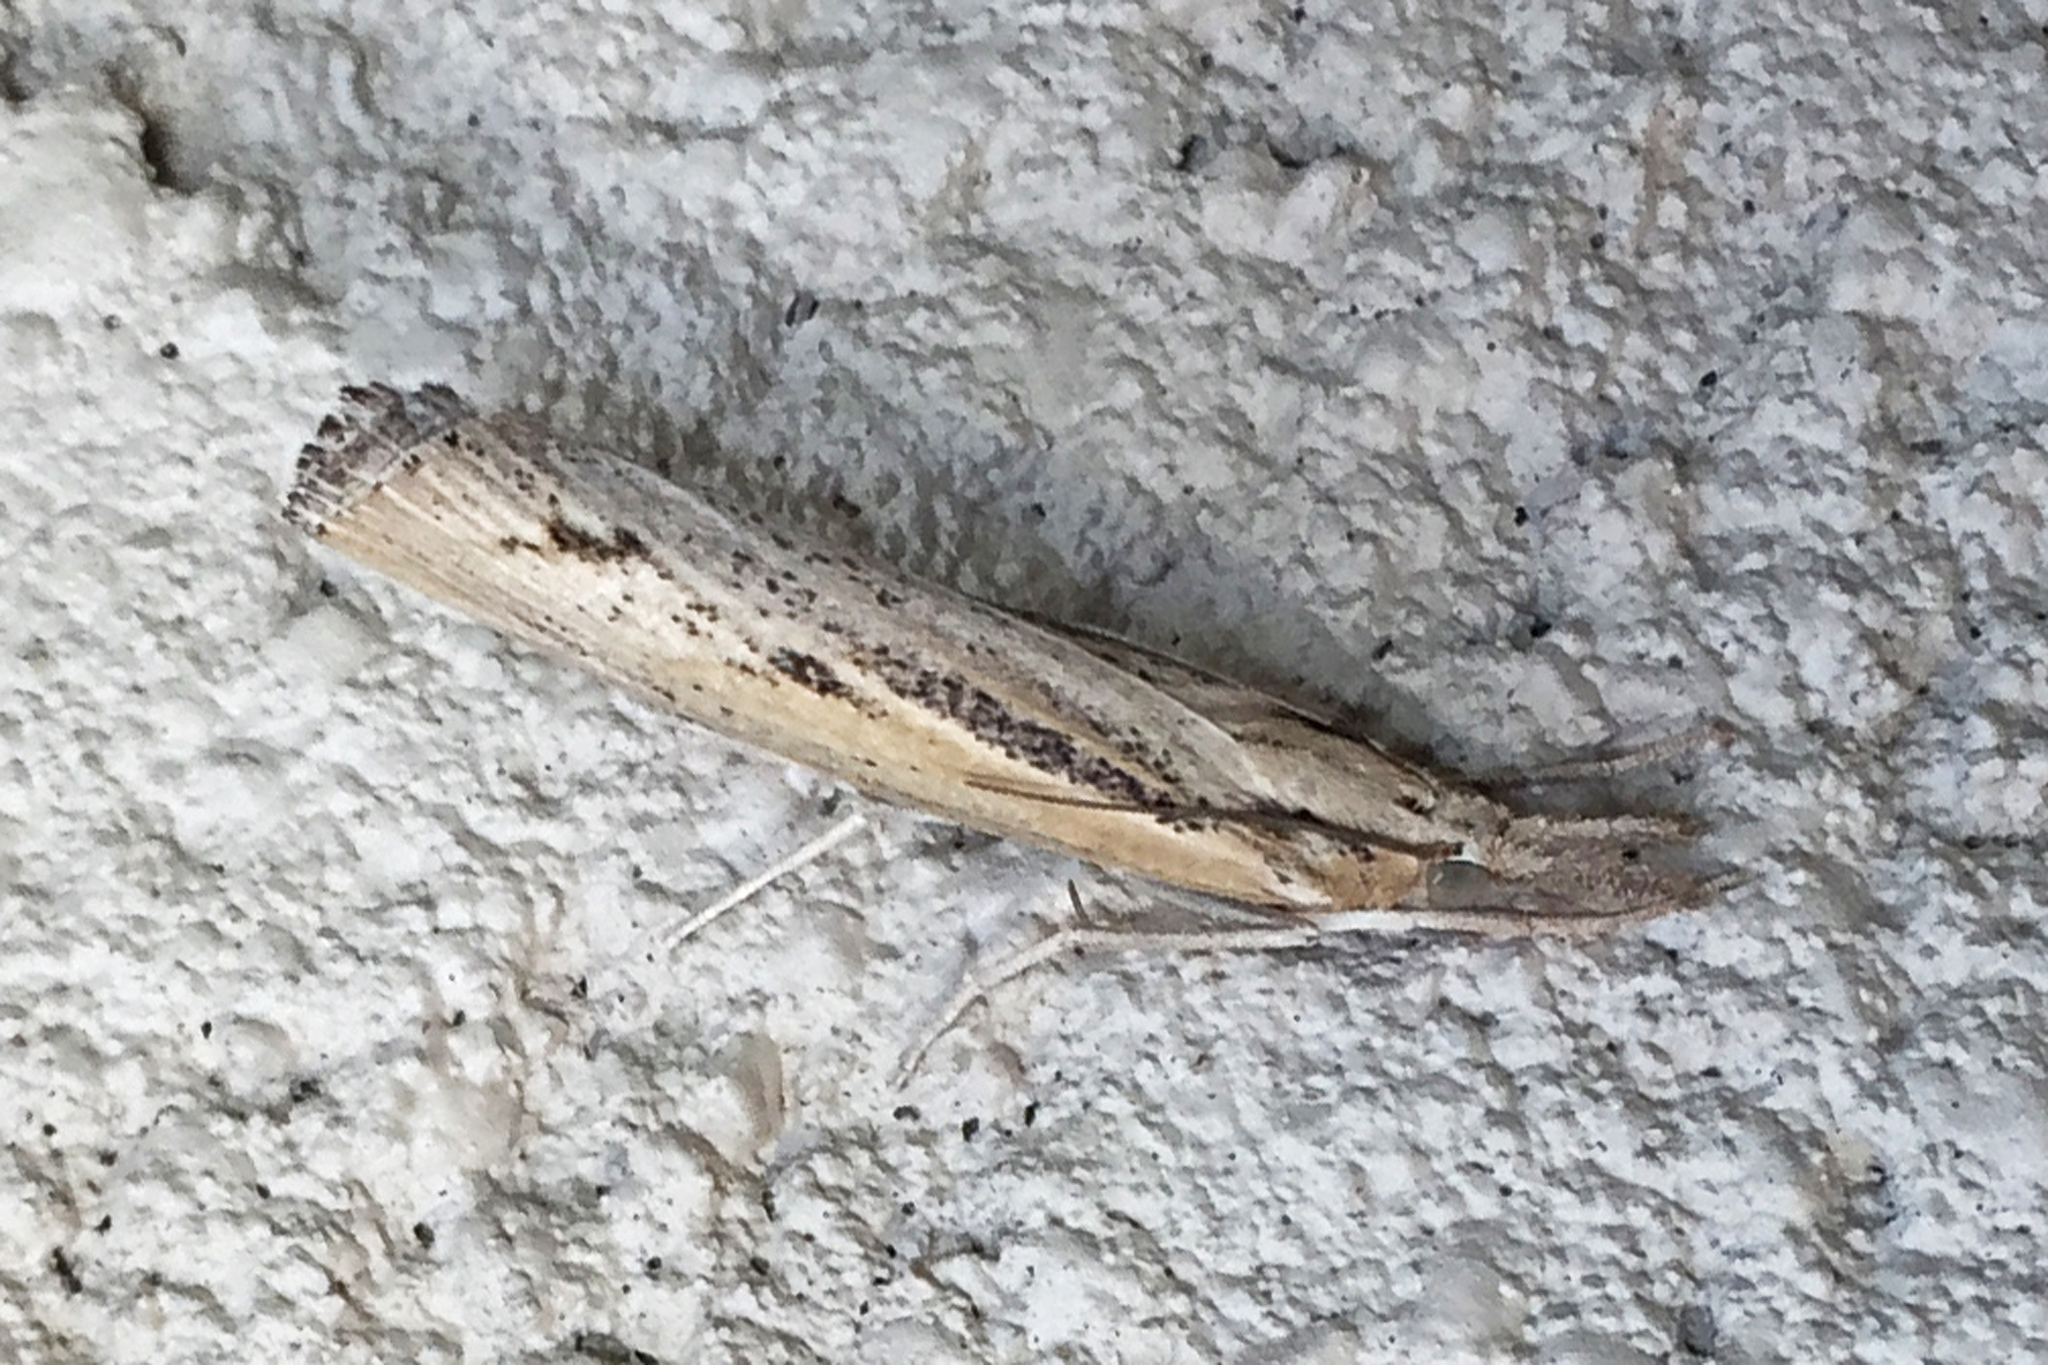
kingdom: Animalia
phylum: Arthropoda
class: Insecta
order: Lepidoptera
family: Crambidae
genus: Pediasia
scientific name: Pediasia trisecta
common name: Sod webworm moth
